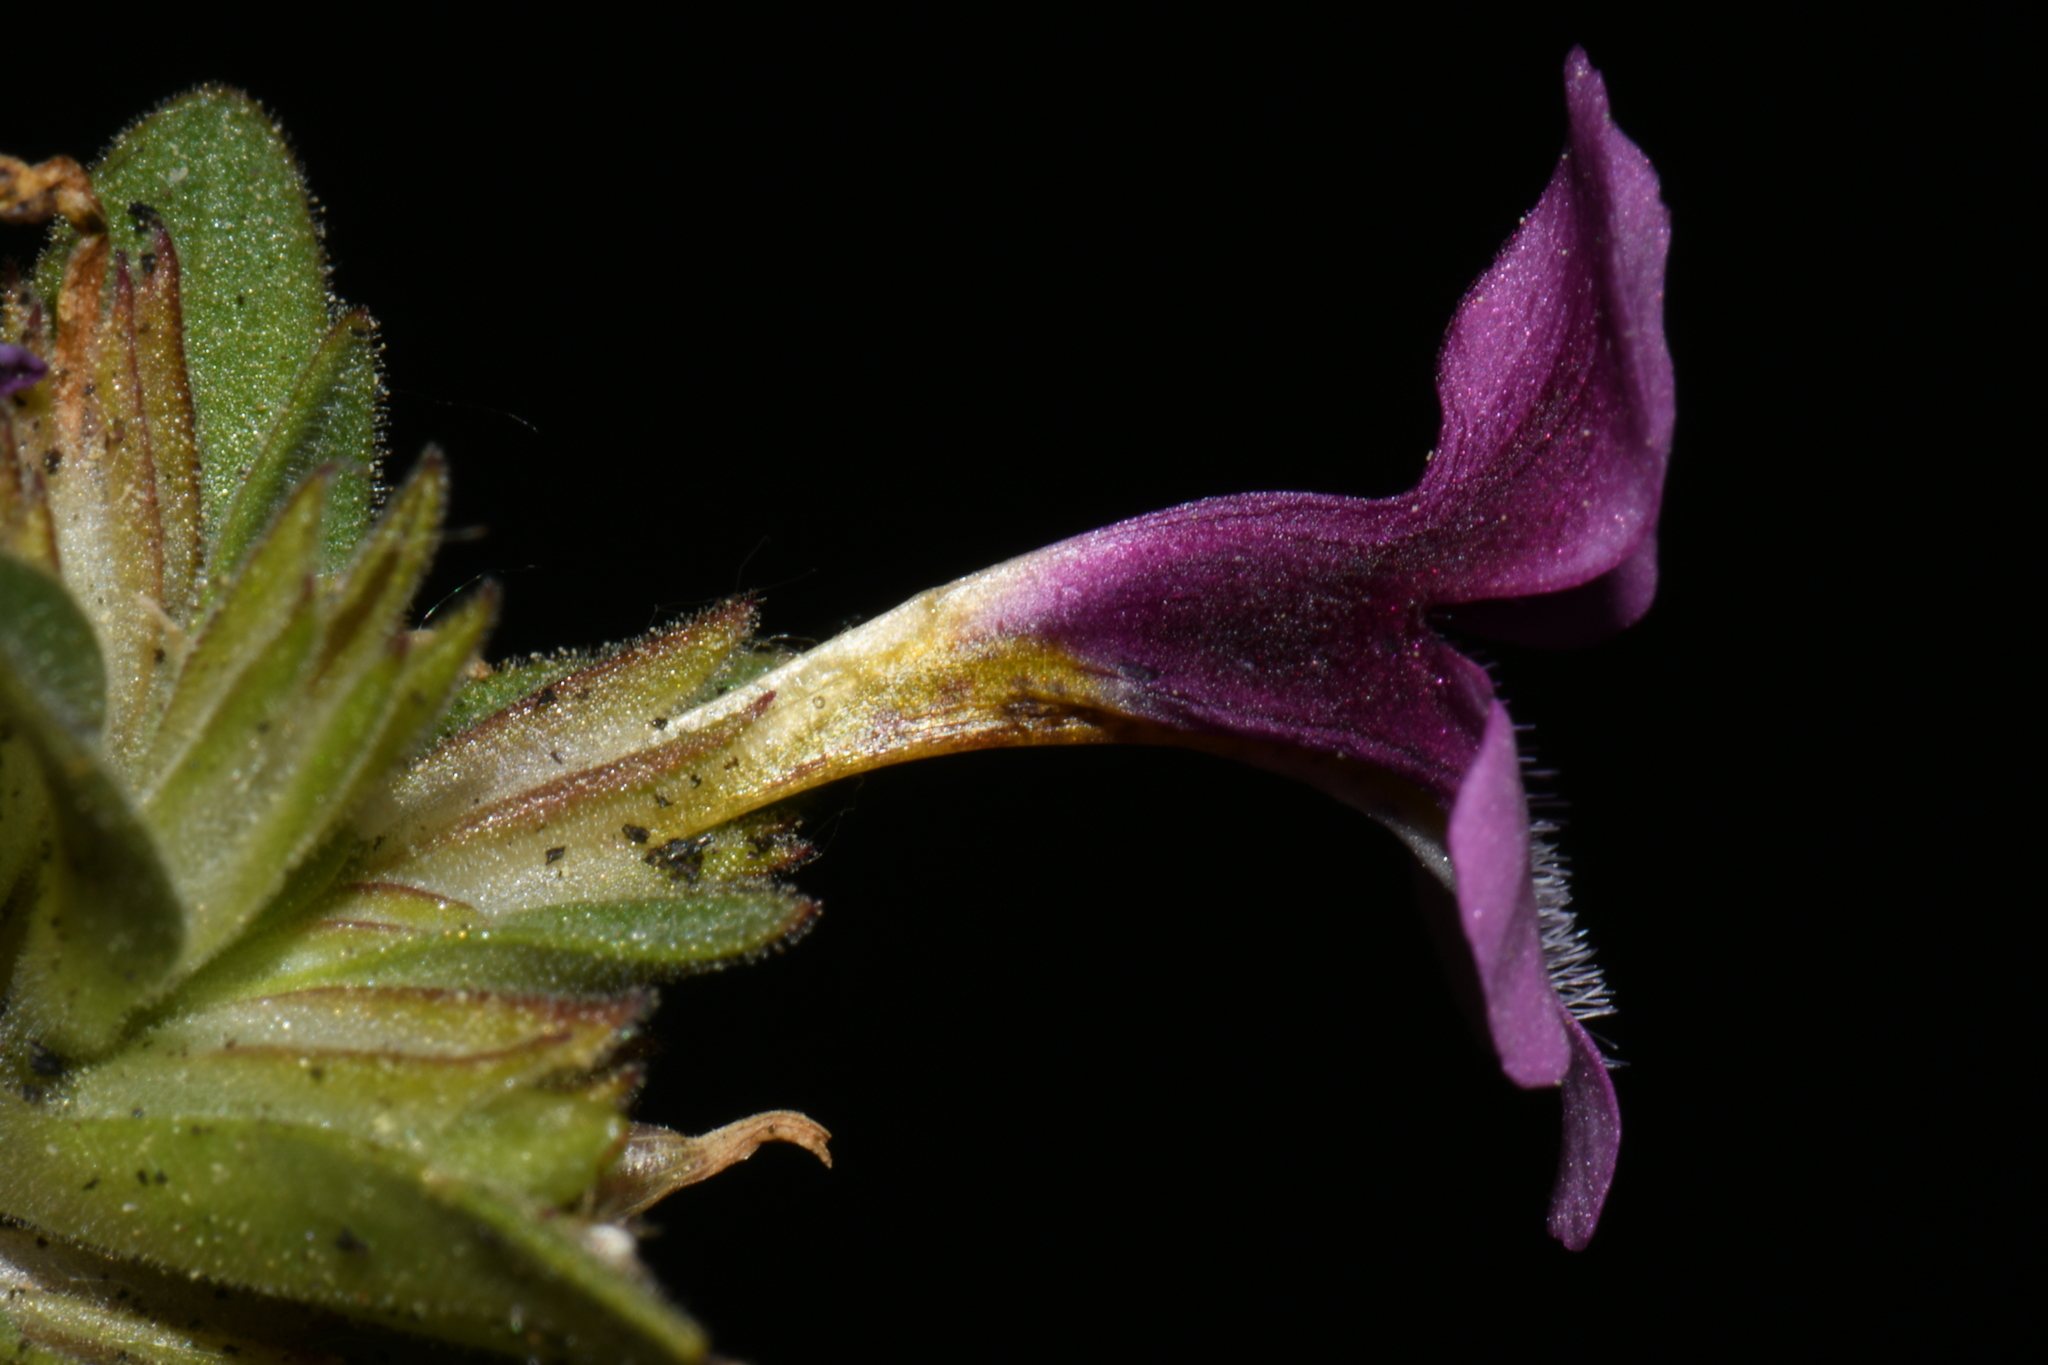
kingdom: Plantae
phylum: Tracheophyta
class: Magnoliopsida
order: Lamiales
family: Phrymaceae
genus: Diplacus
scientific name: Diplacus nanus
